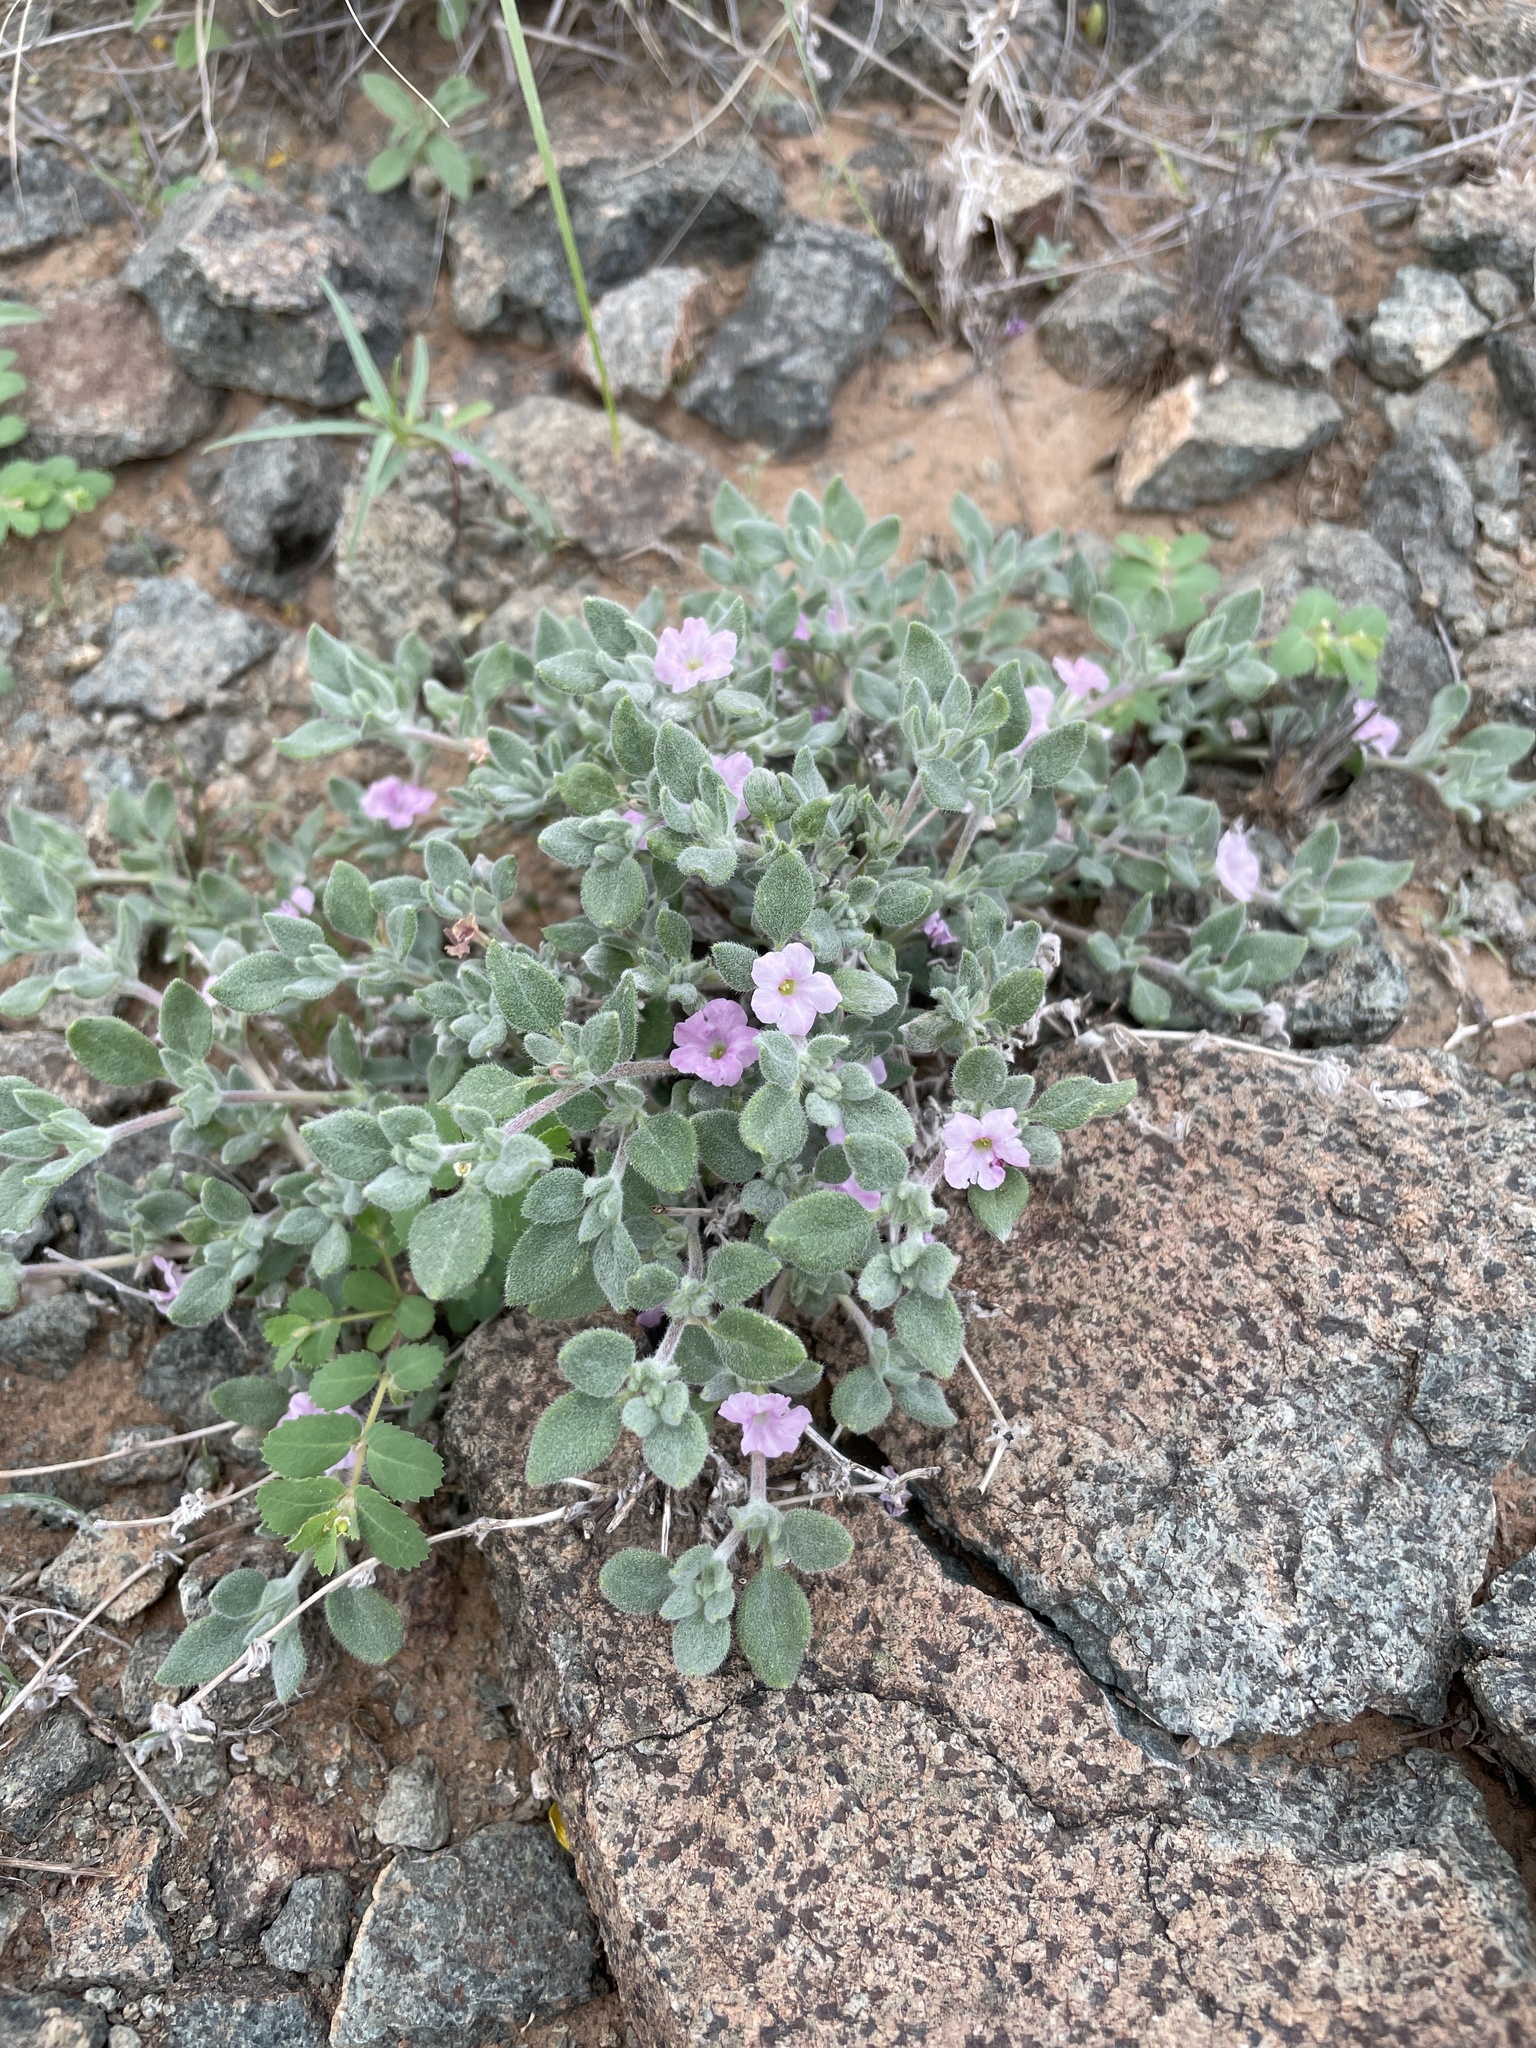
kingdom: Plantae
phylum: Tracheophyta
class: Magnoliopsida
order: Boraginales
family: Ehretiaceae
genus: Tiquilia
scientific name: Tiquilia canescens
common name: Hairy tiquilia
